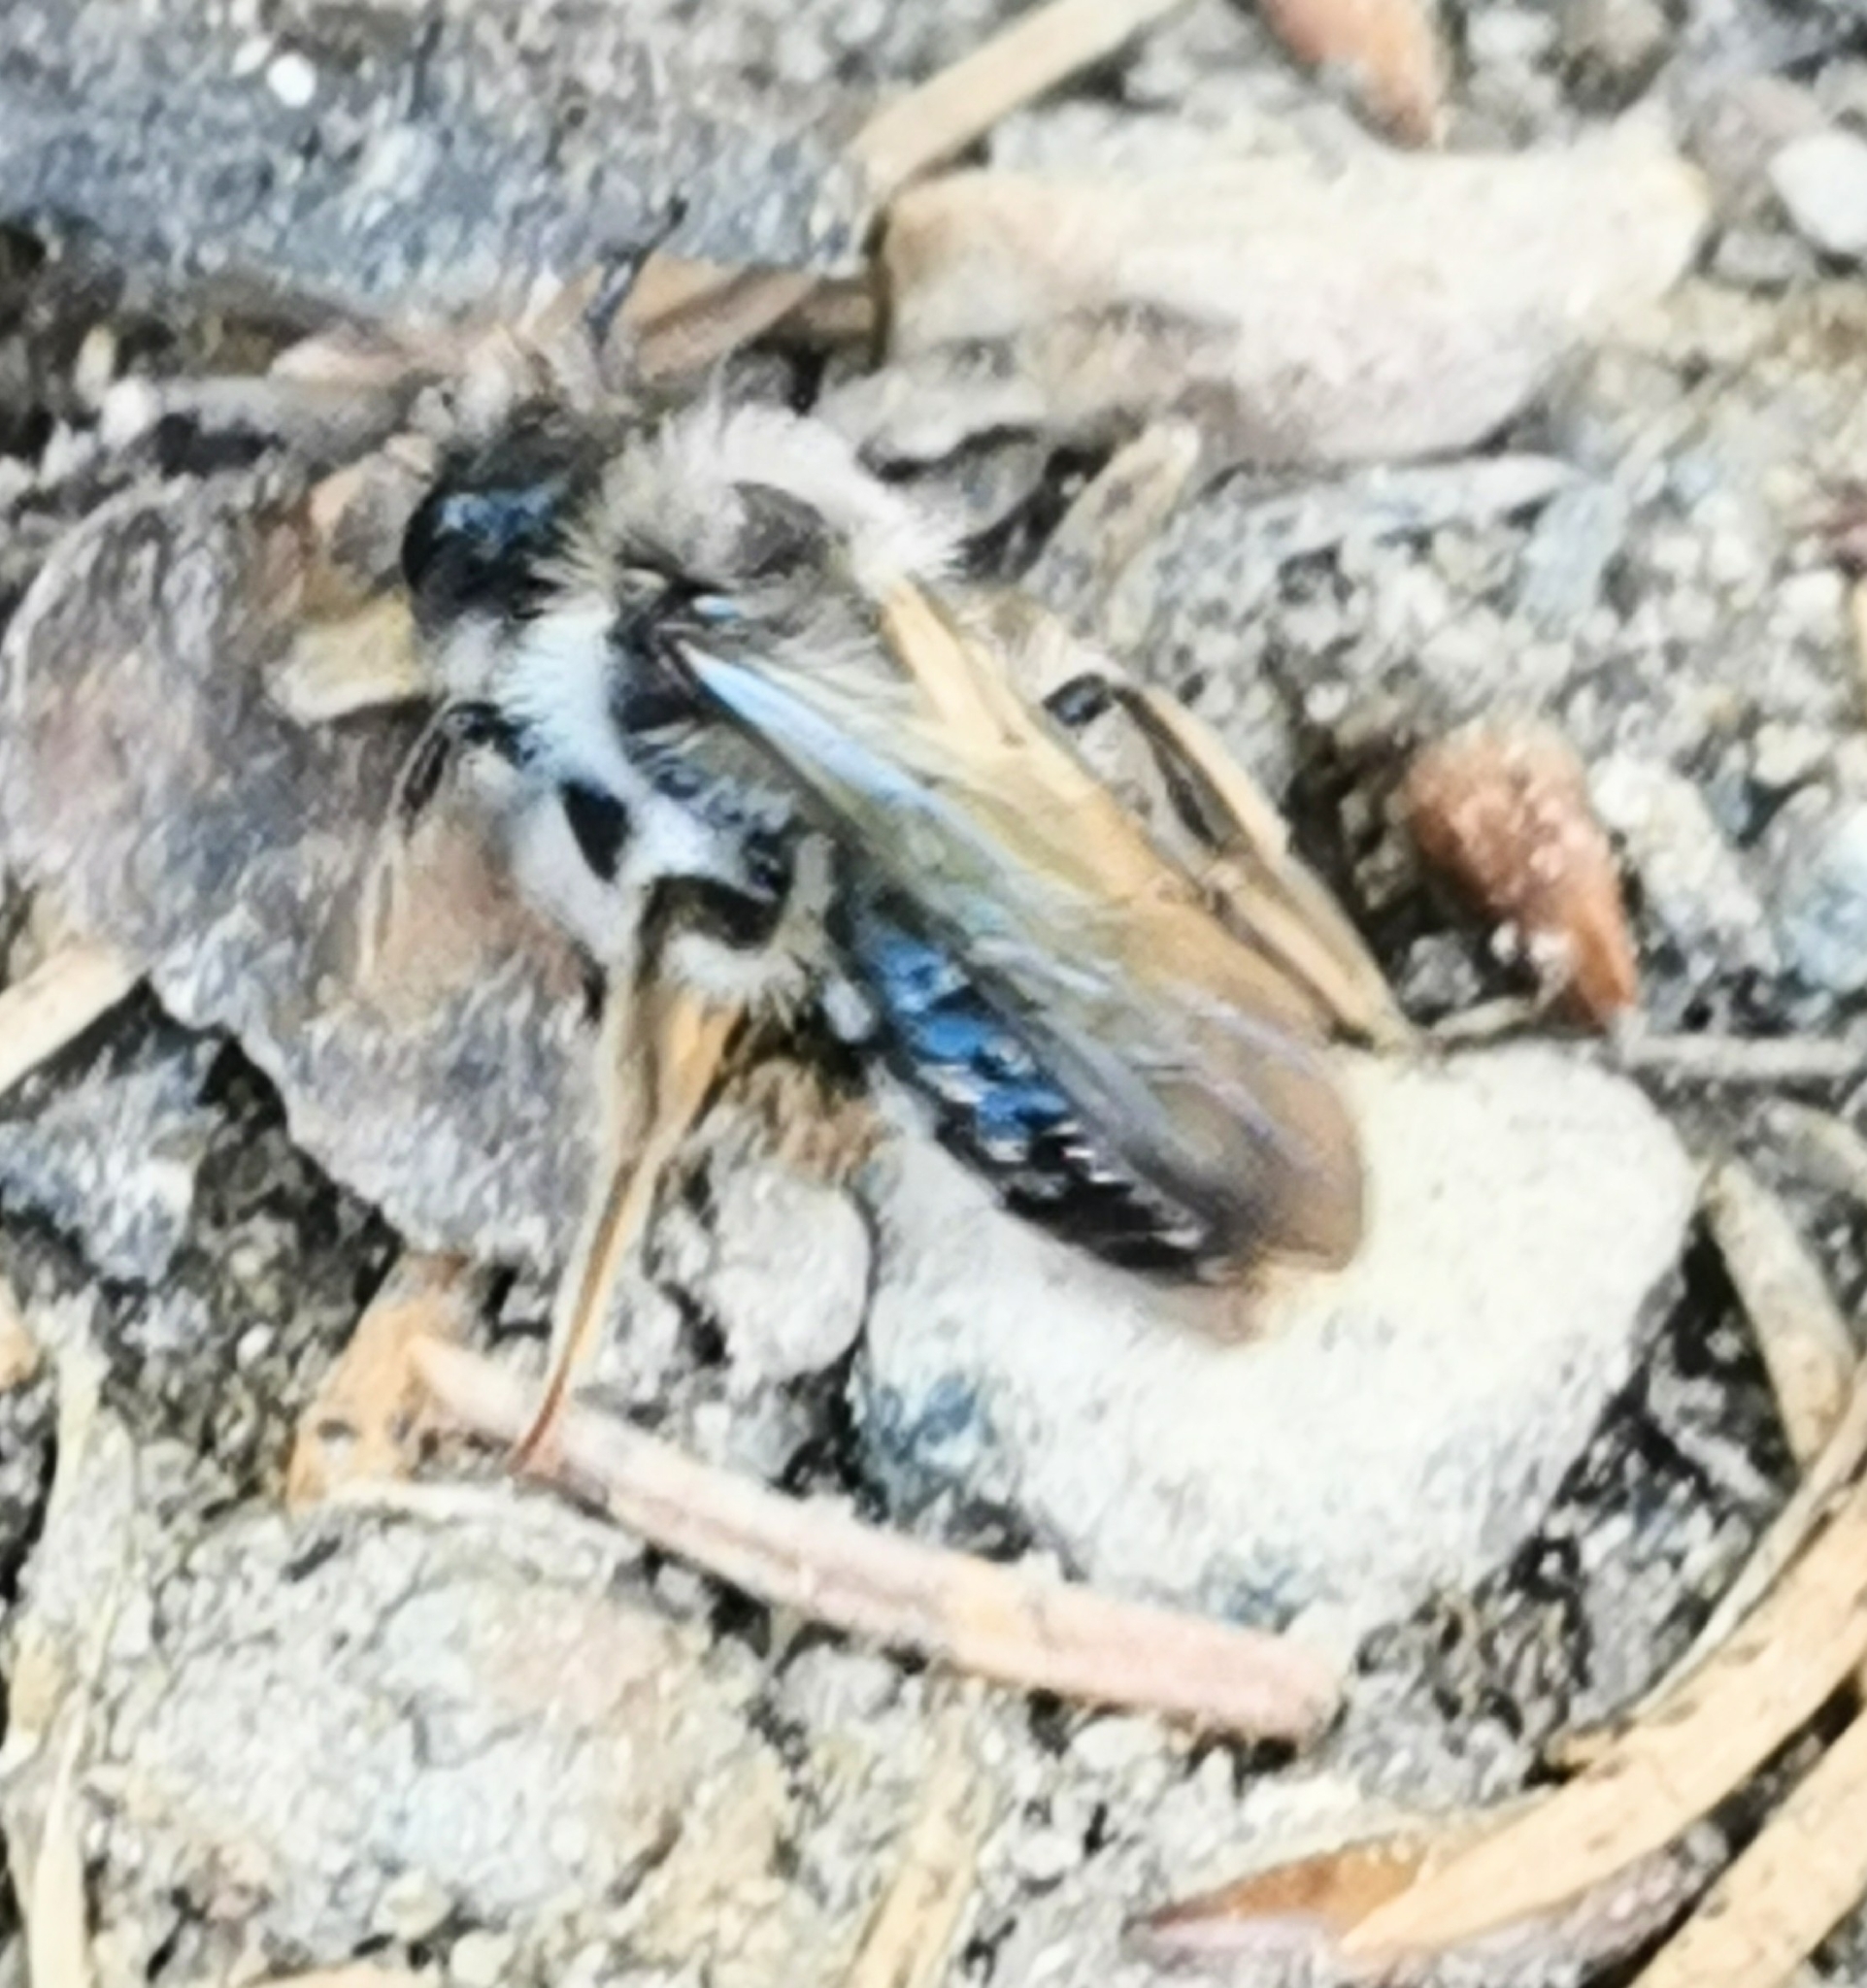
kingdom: Animalia
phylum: Arthropoda
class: Insecta
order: Hymenoptera
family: Andrenidae
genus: Andrena
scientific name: Andrena vaga
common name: Grey-backed mining bee
